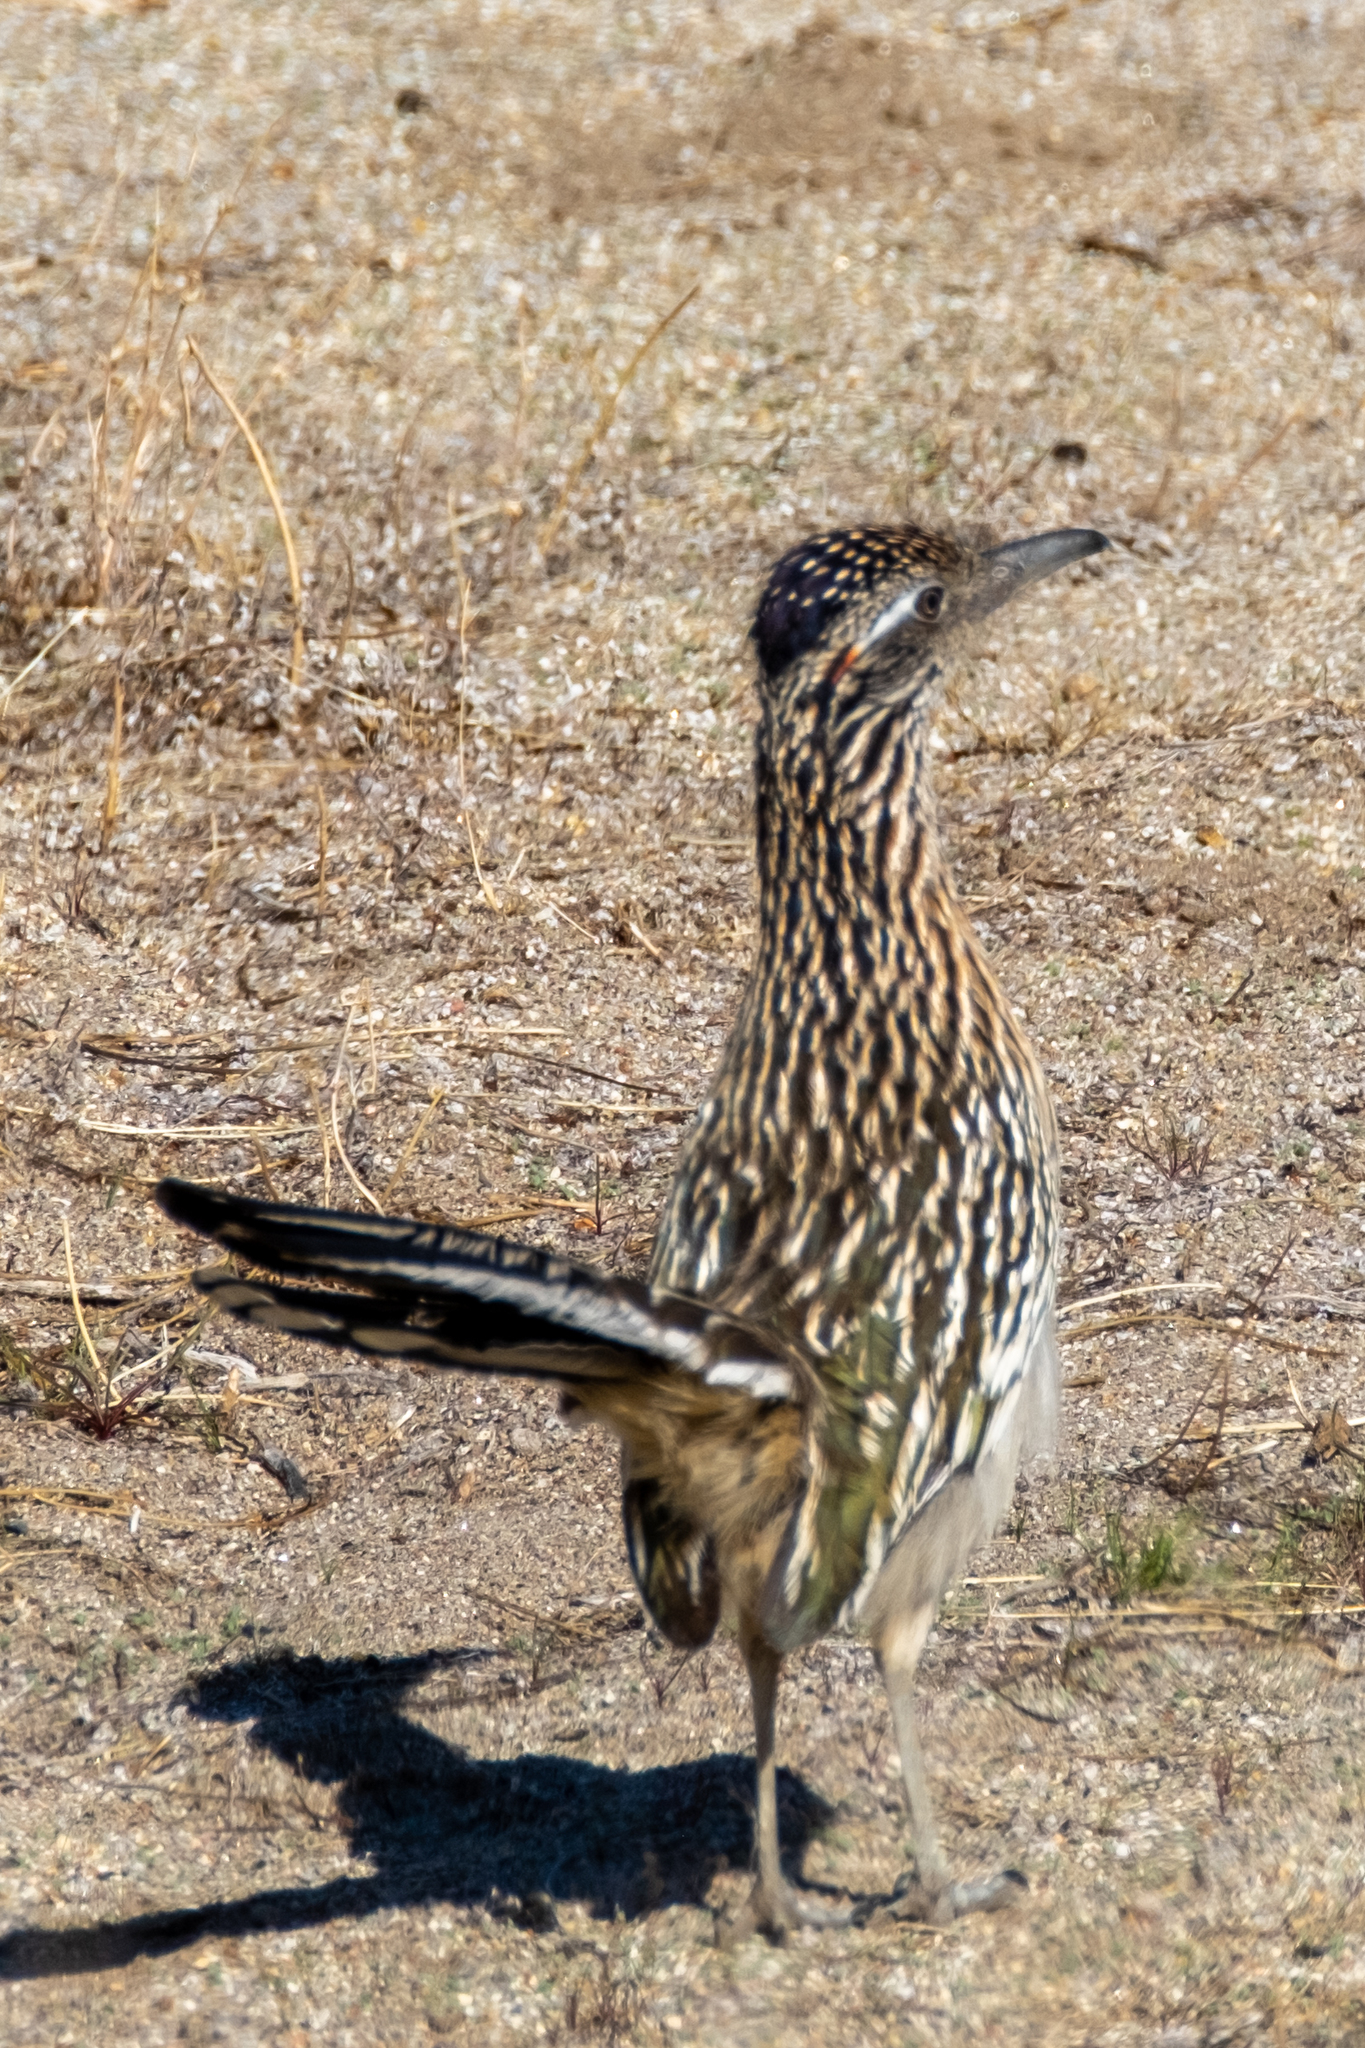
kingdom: Animalia
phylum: Chordata
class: Aves
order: Cuculiformes
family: Cuculidae
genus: Geococcyx
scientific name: Geococcyx californianus
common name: Greater roadrunner
